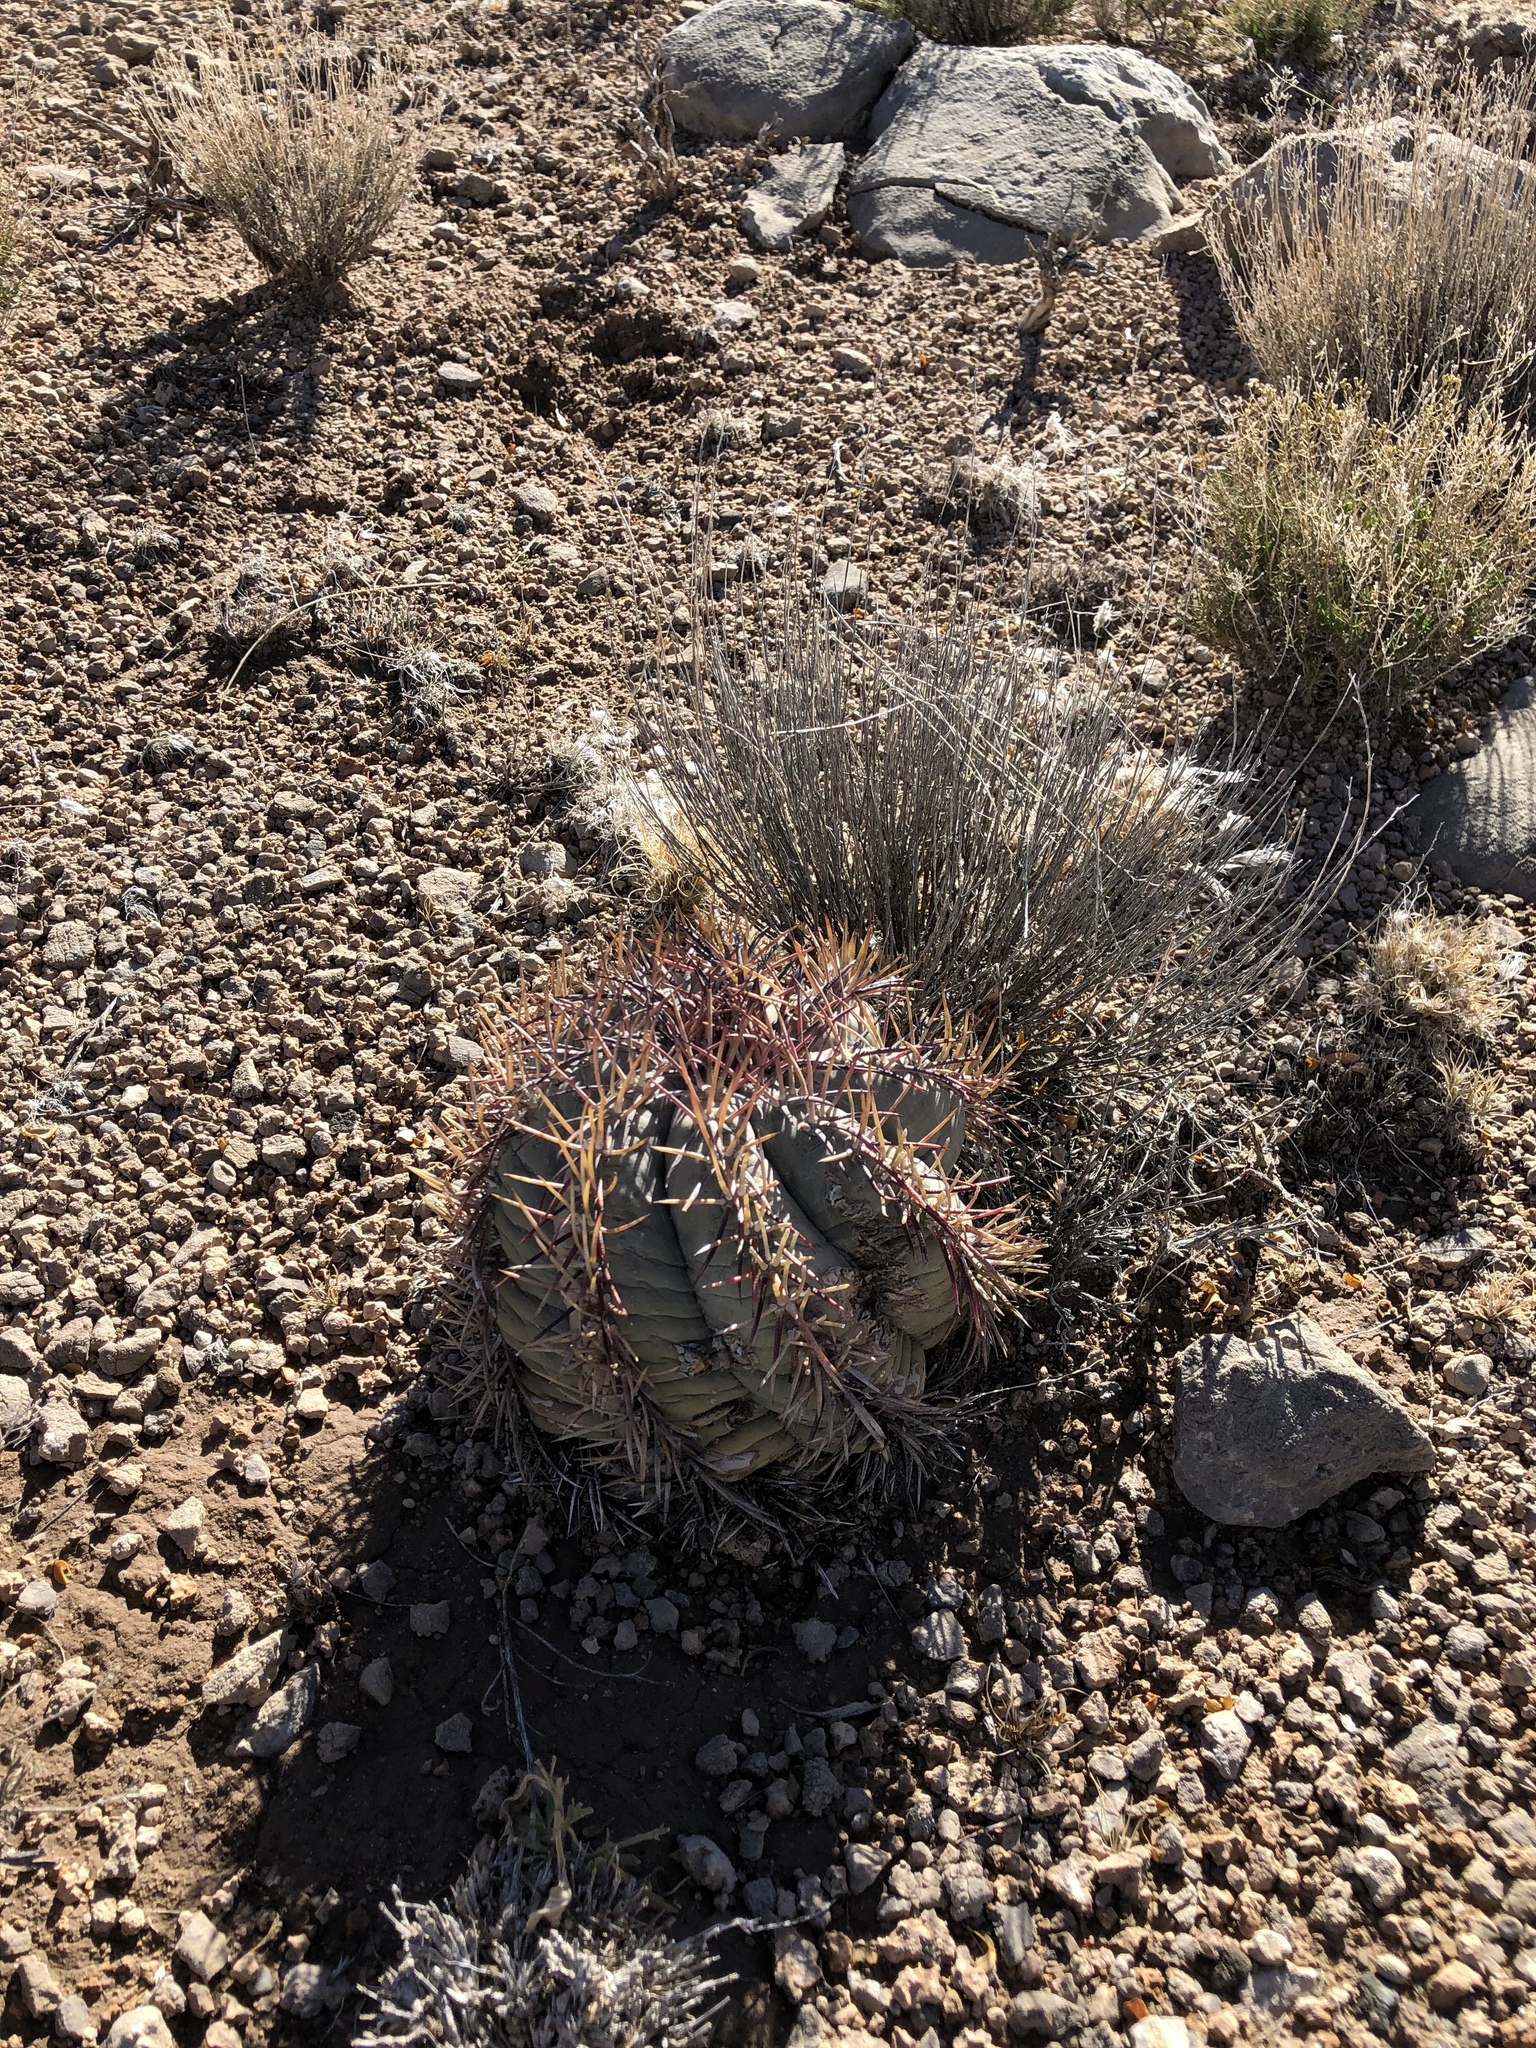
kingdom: Plantae
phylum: Tracheophyta
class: Magnoliopsida
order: Caryophyllales
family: Cactaceae
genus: Echinocactus
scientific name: Echinocactus horizonthalonius
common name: Devilshead
